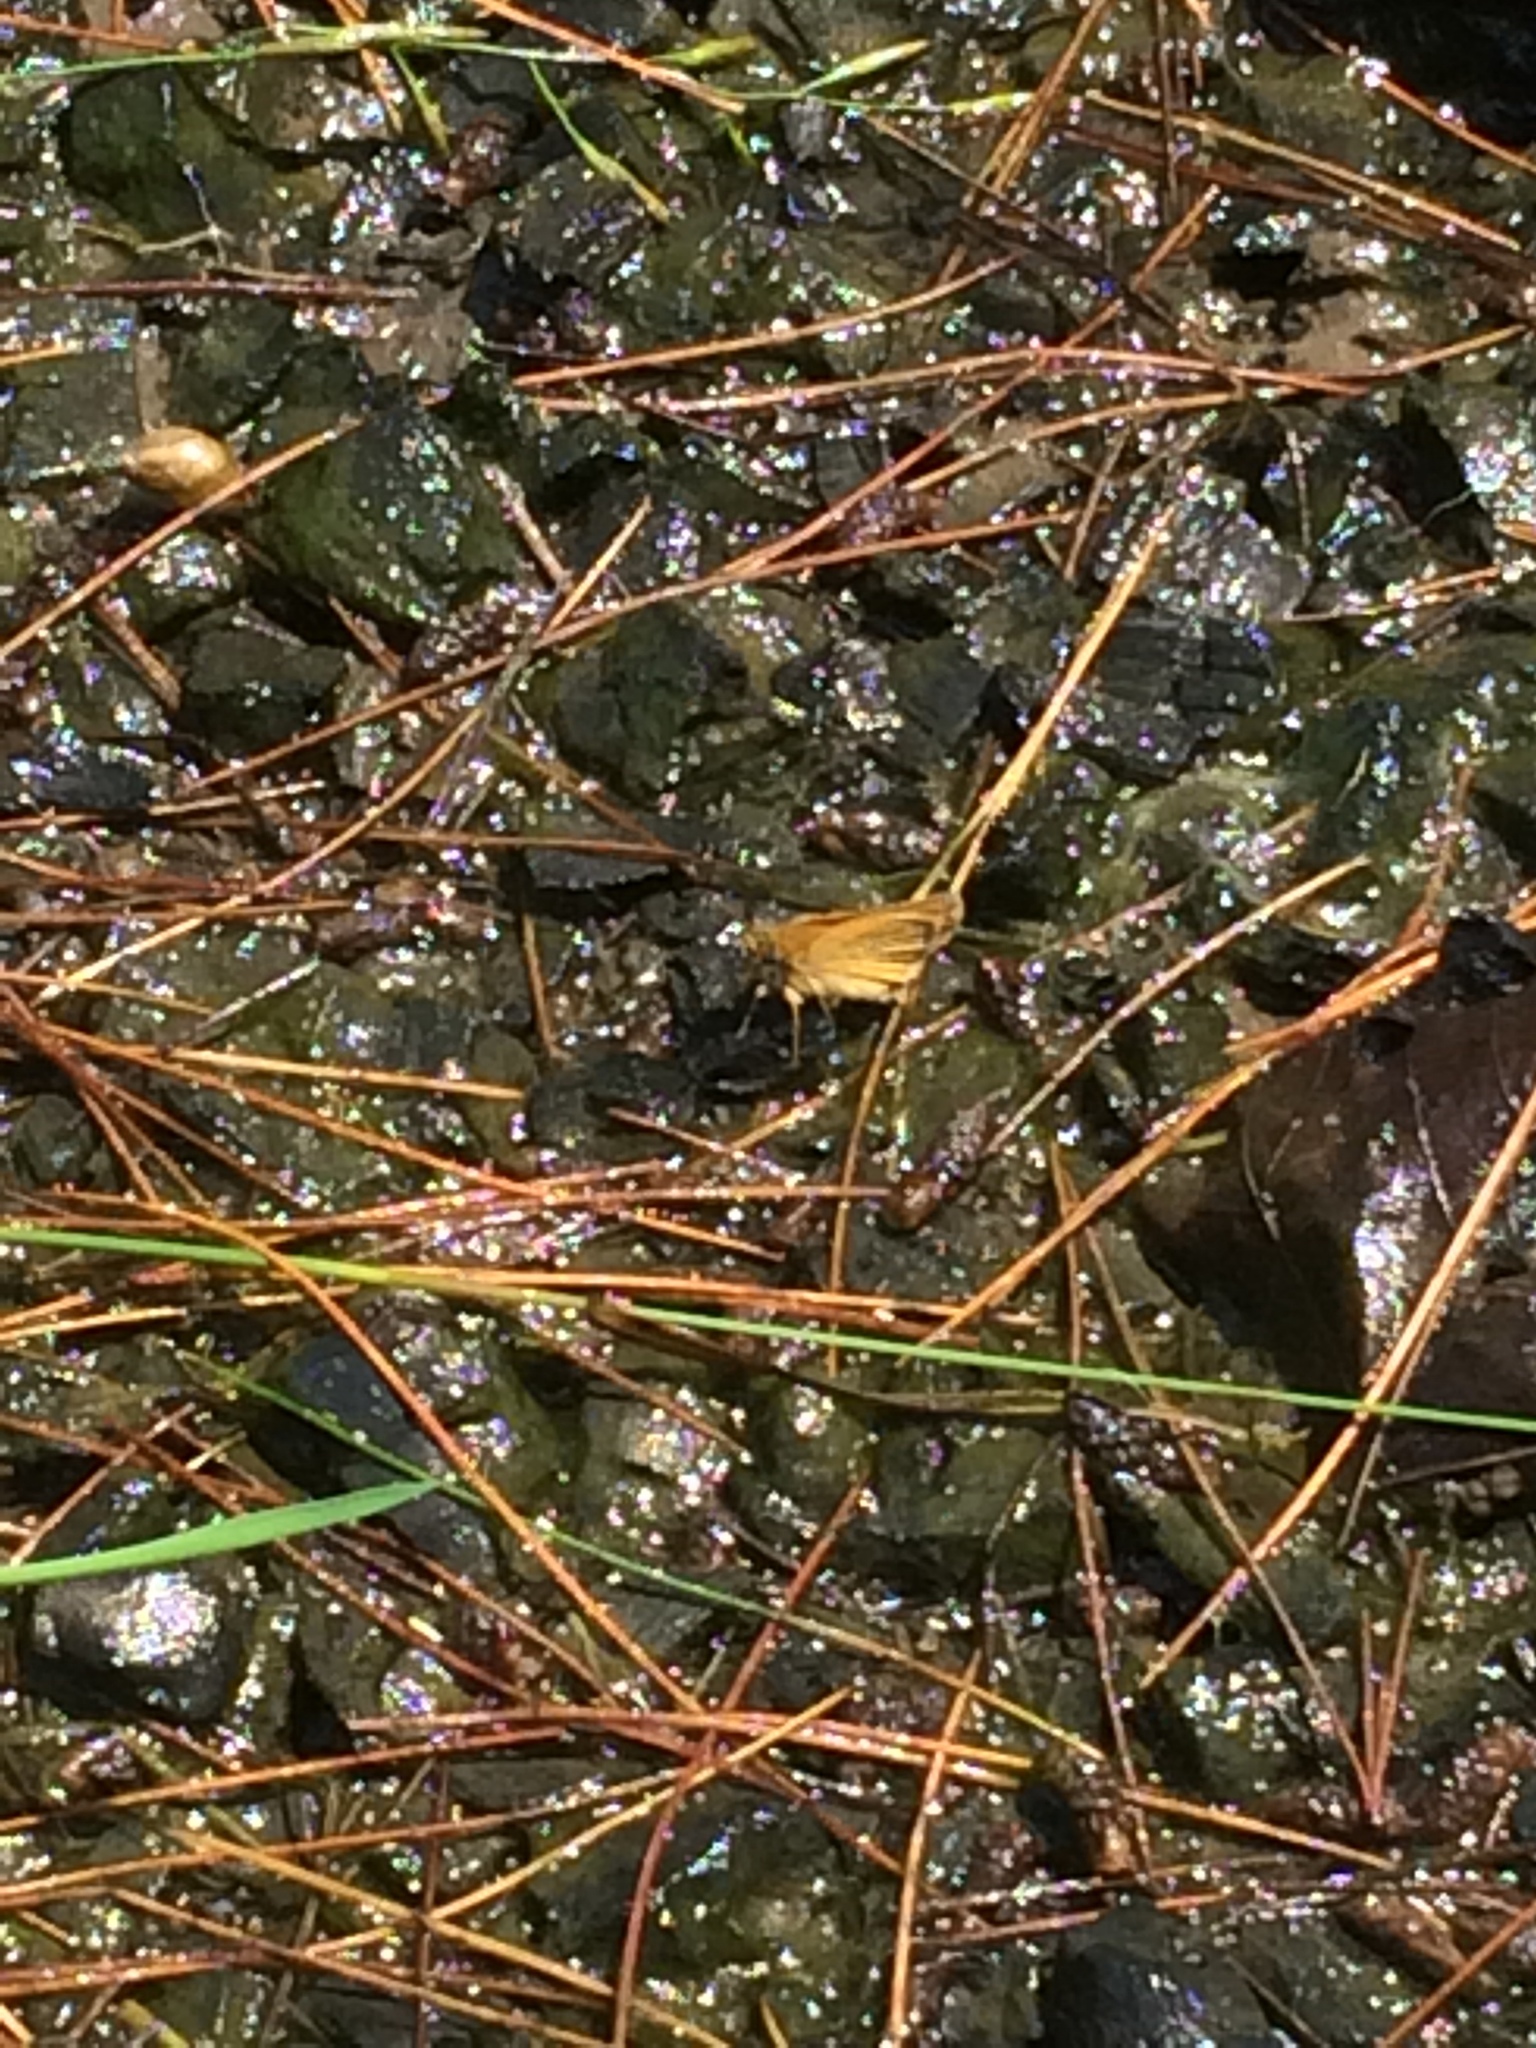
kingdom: Animalia
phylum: Arthropoda
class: Insecta
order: Lepidoptera
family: Hesperiidae
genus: Thymelicus
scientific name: Thymelicus lineola
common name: Essex skipper
